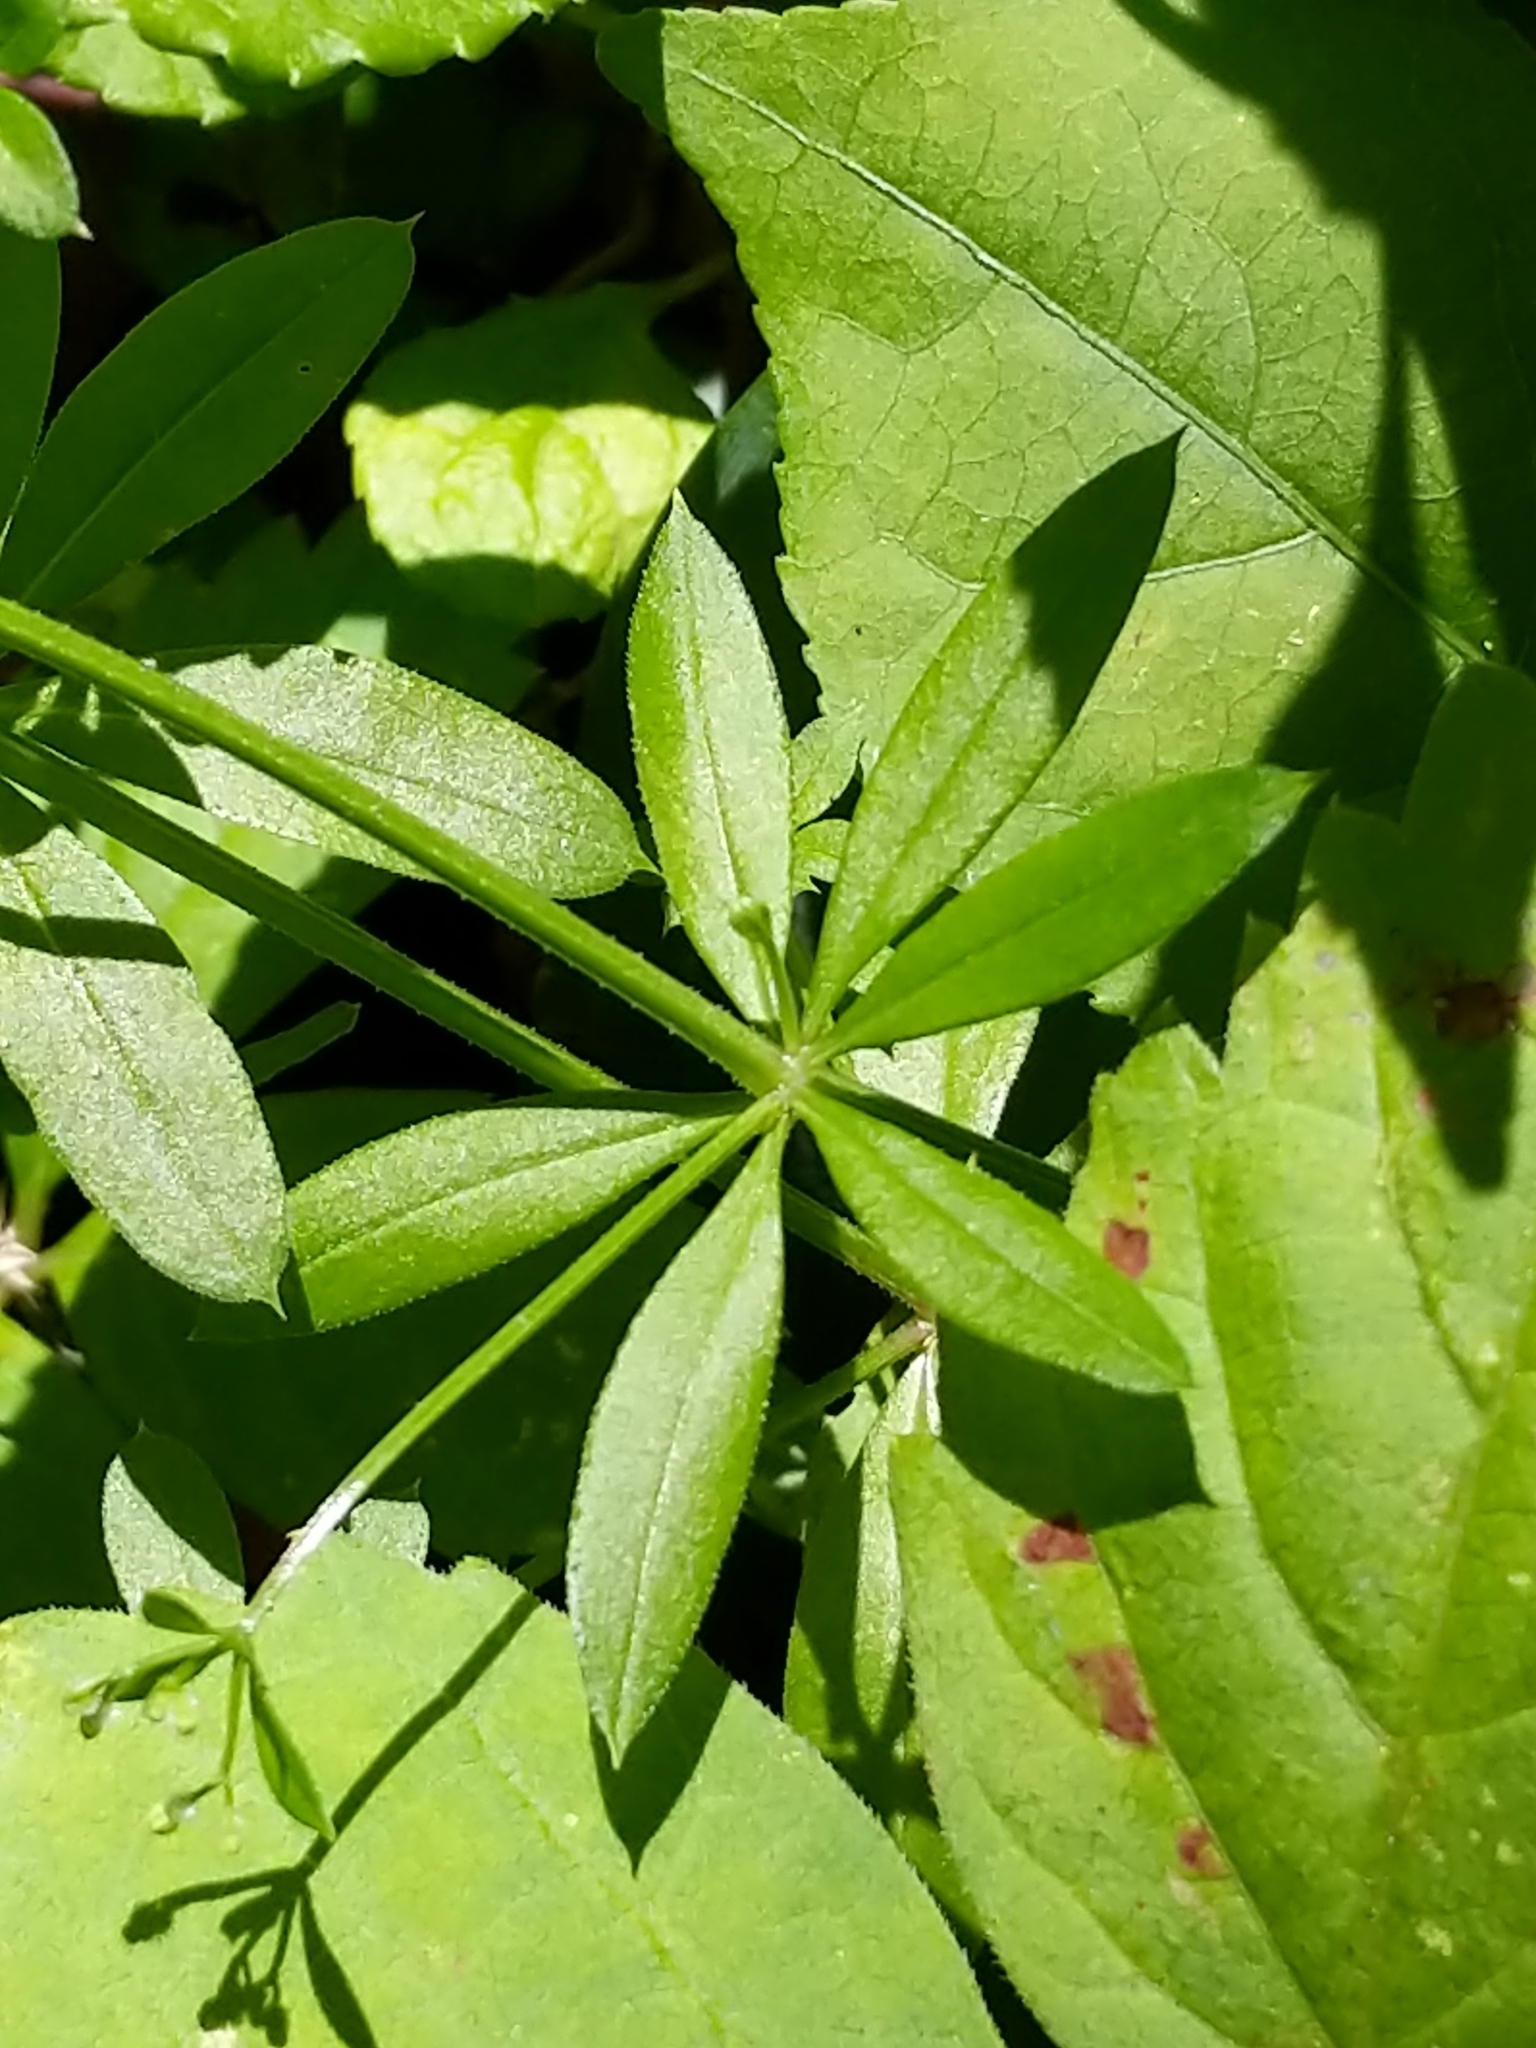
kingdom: Plantae
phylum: Tracheophyta
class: Magnoliopsida
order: Gentianales
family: Rubiaceae
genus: Galium
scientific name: Galium triflorum
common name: Fragrant bedstraw
